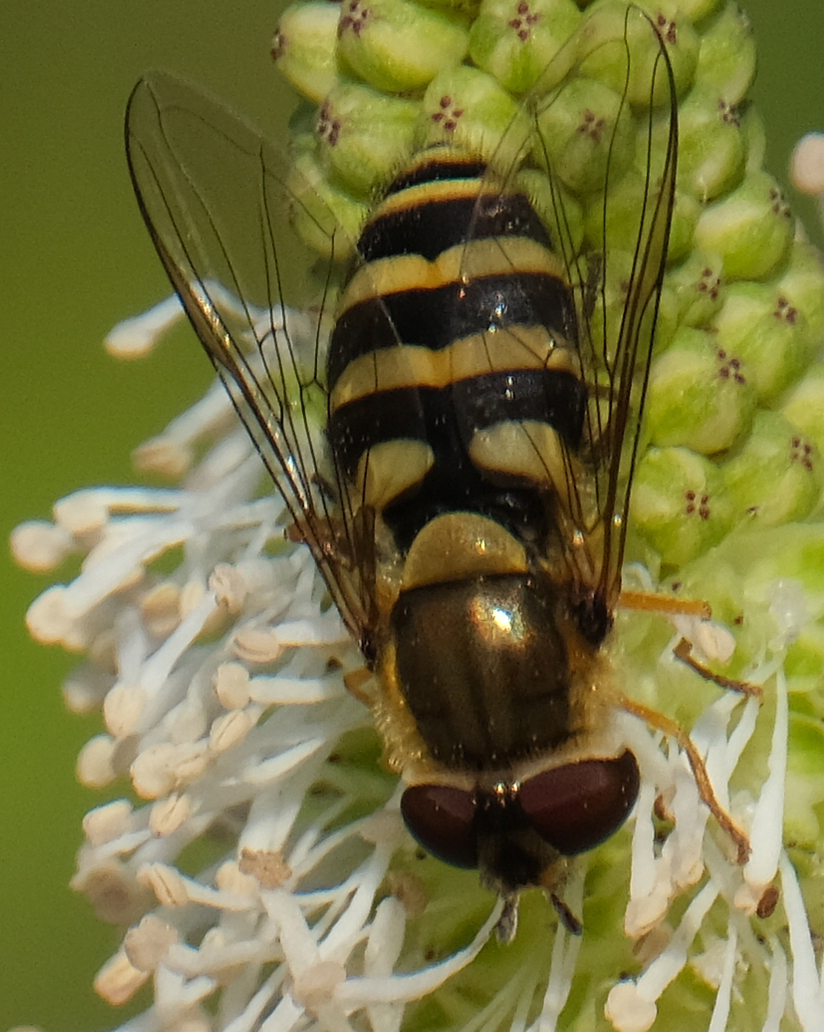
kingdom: Animalia
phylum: Arthropoda
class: Insecta
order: Diptera
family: Syrphidae
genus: Syrphus
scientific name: Syrphus
